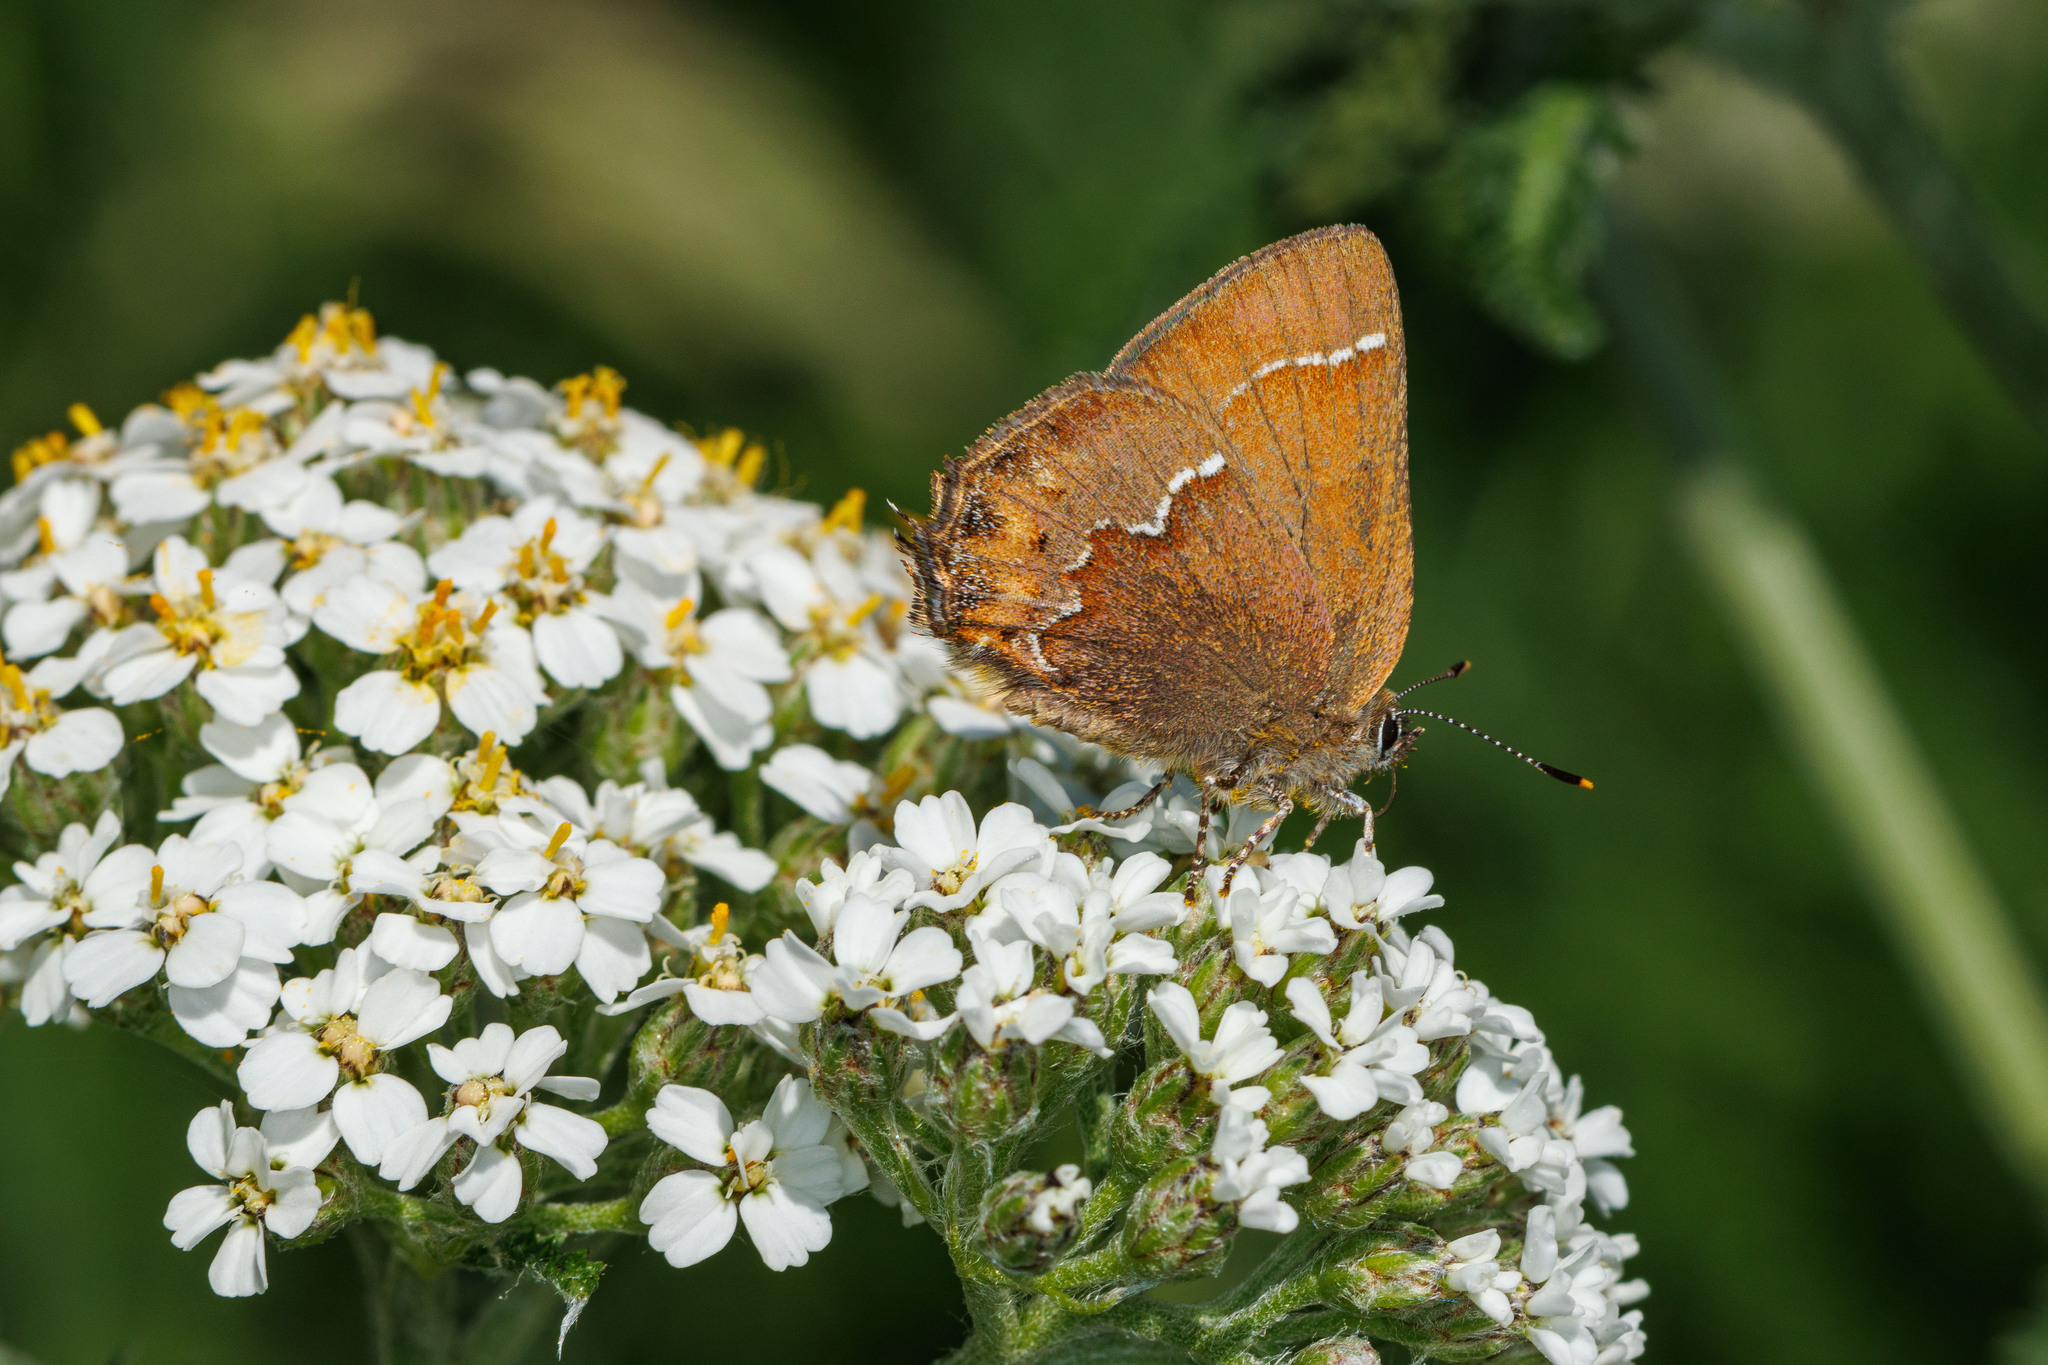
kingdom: Animalia
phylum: Arthropoda
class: Insecta
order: Lepidoptera
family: Lycaenidae
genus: Mitoura
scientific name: Mitoura gryneus
